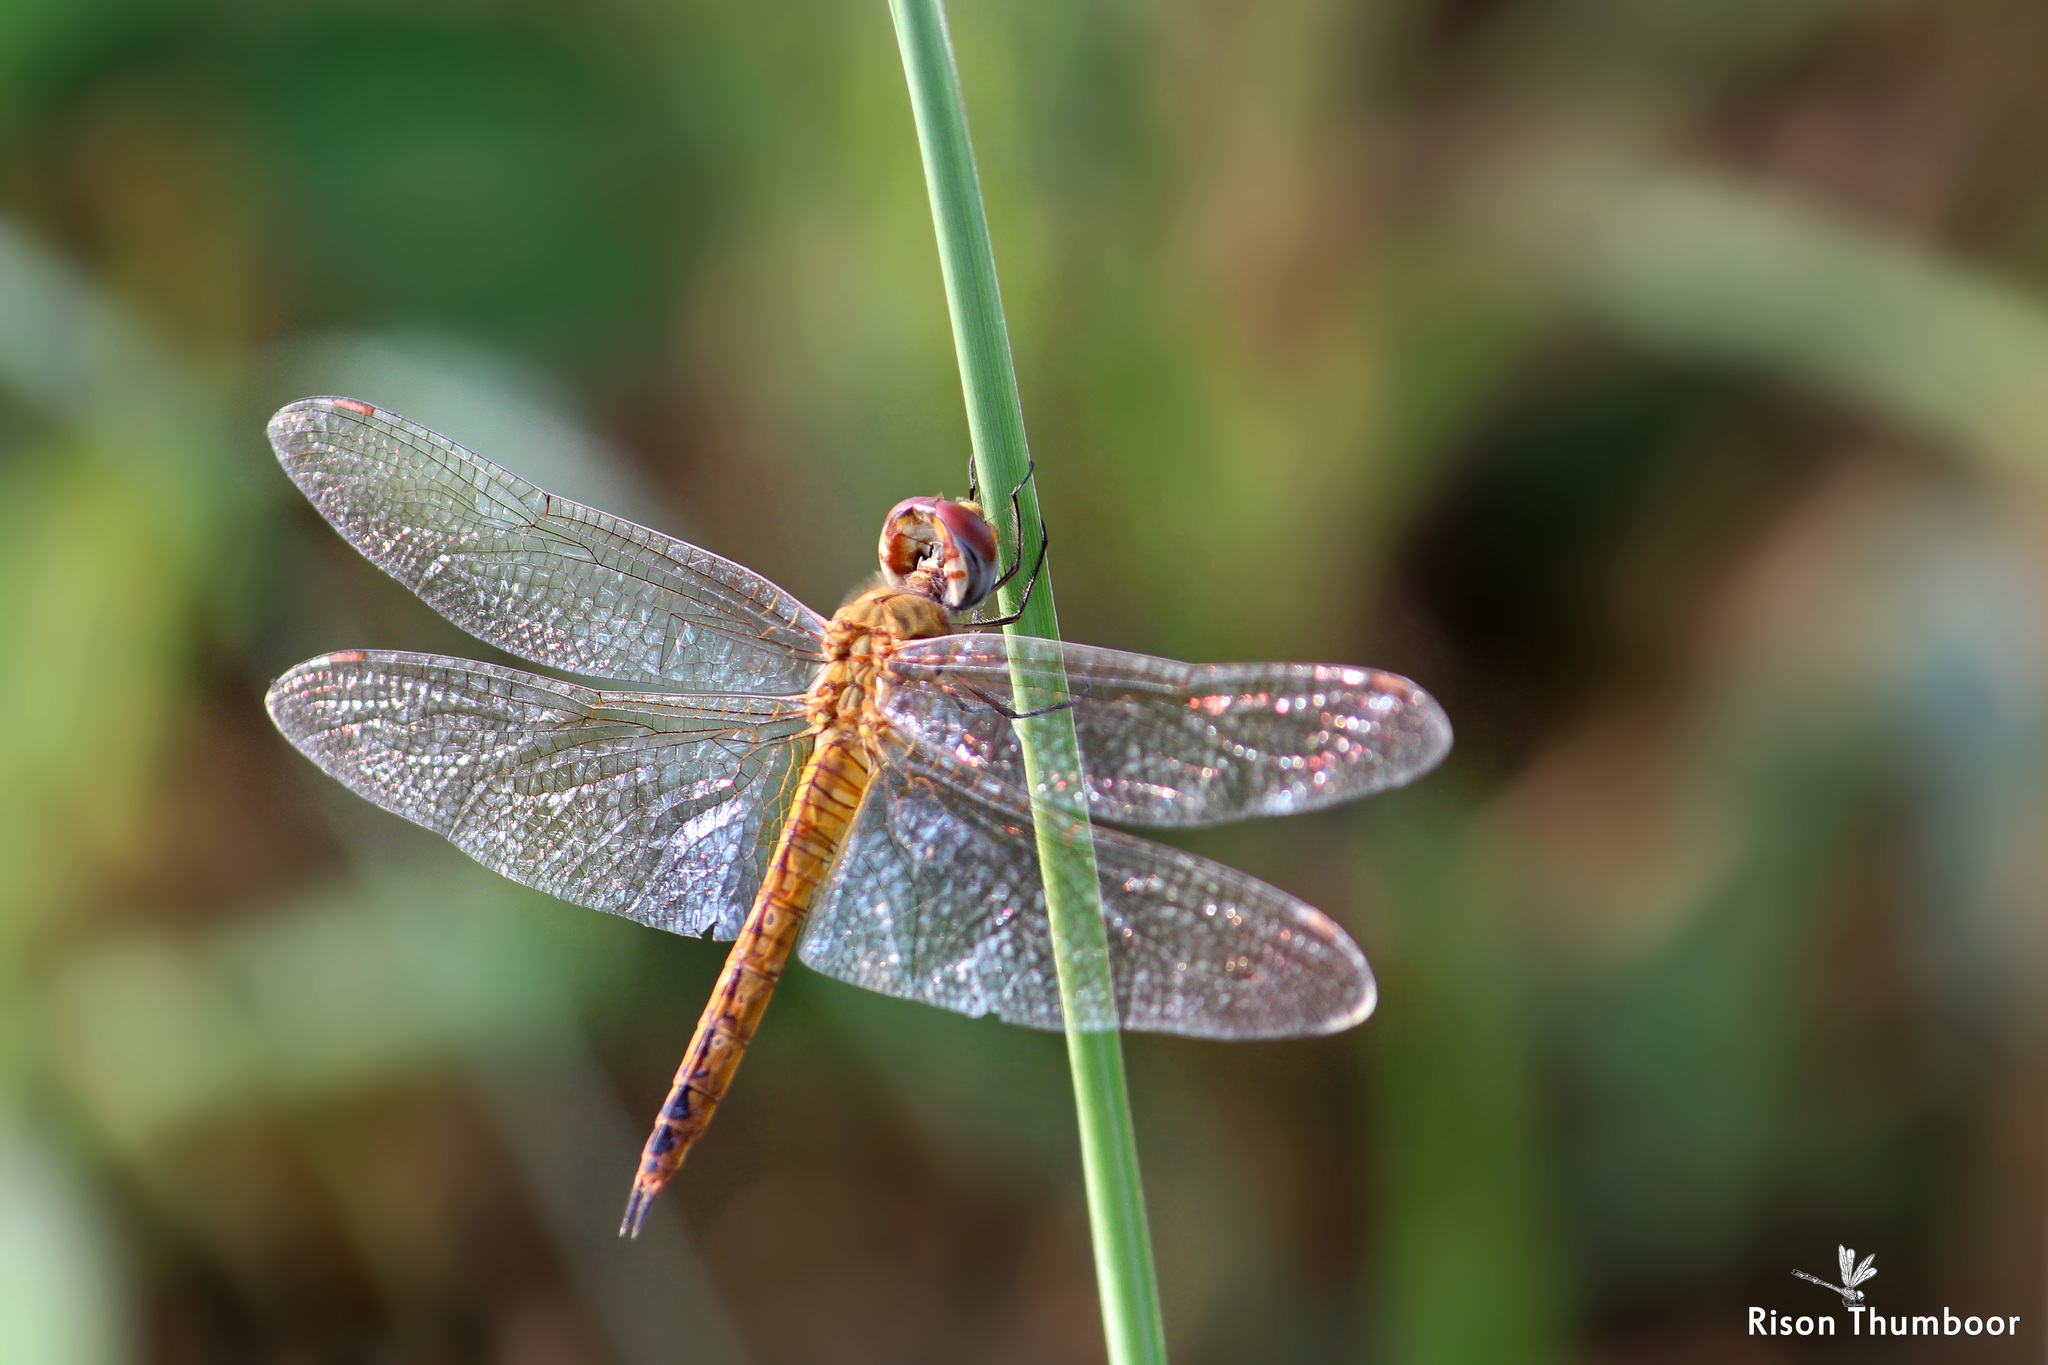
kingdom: Animalia
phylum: Arthropoda
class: Insecta
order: Odonata
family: Libellulidae
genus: Pantala
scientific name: Pantala flavescens
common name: Wandering glider
